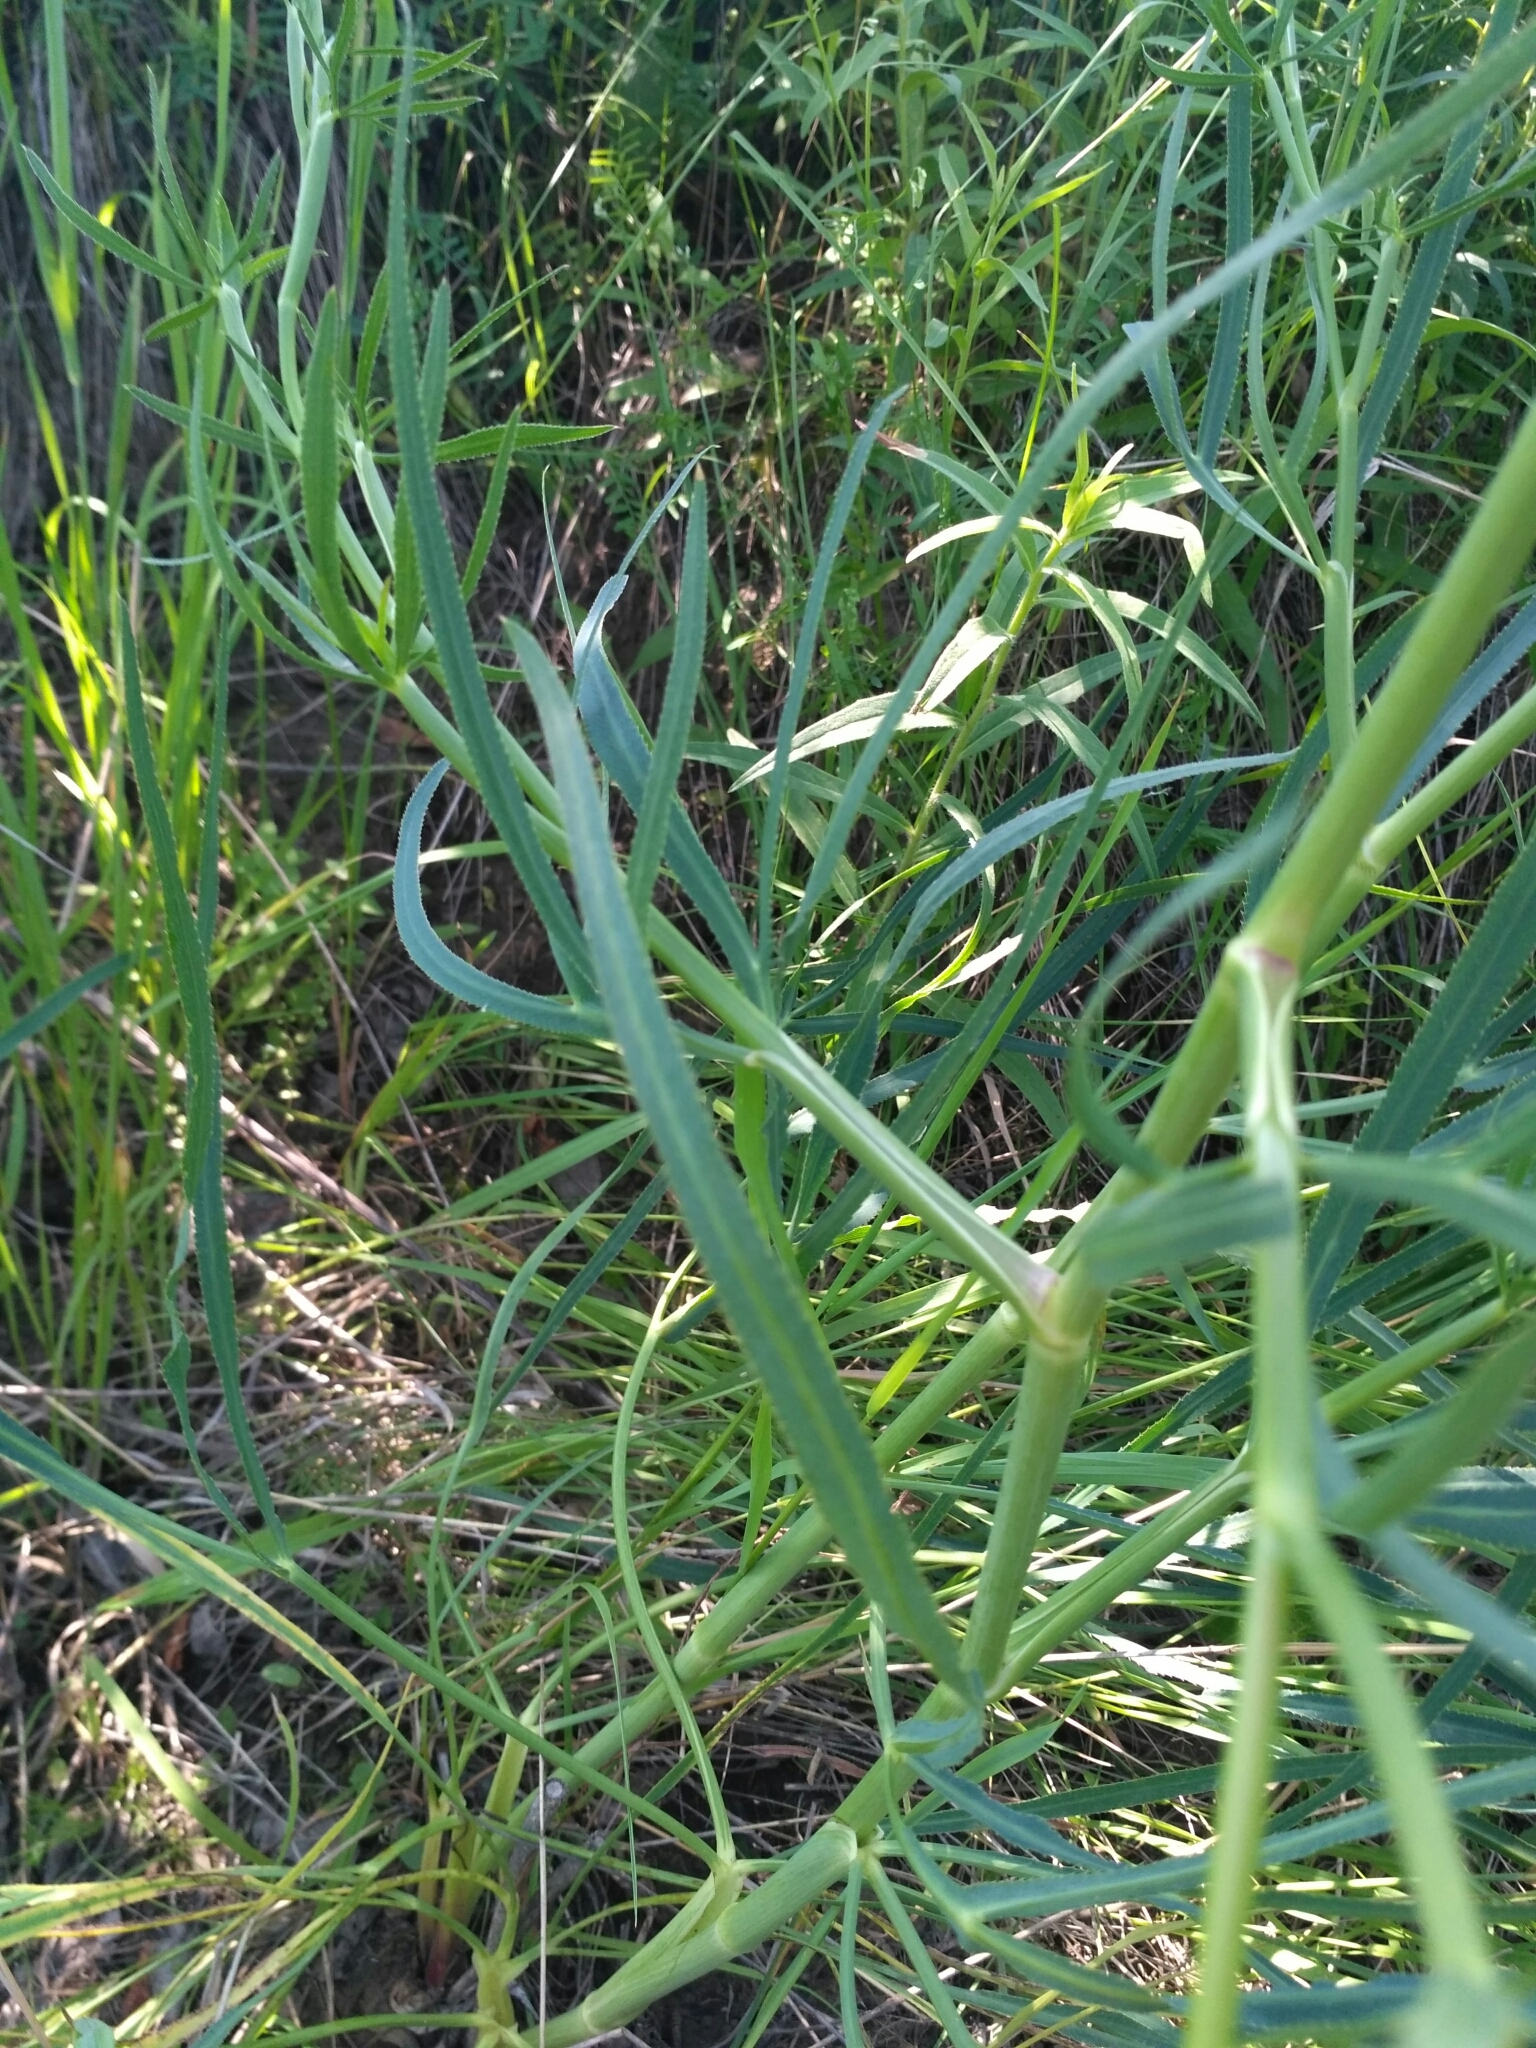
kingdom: Plantae
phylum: Tracheophyta
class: Magnoliopsida
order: Apiales
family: Apiaceae
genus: Falcaria
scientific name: Falcaria vulgaris
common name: Longleaf
